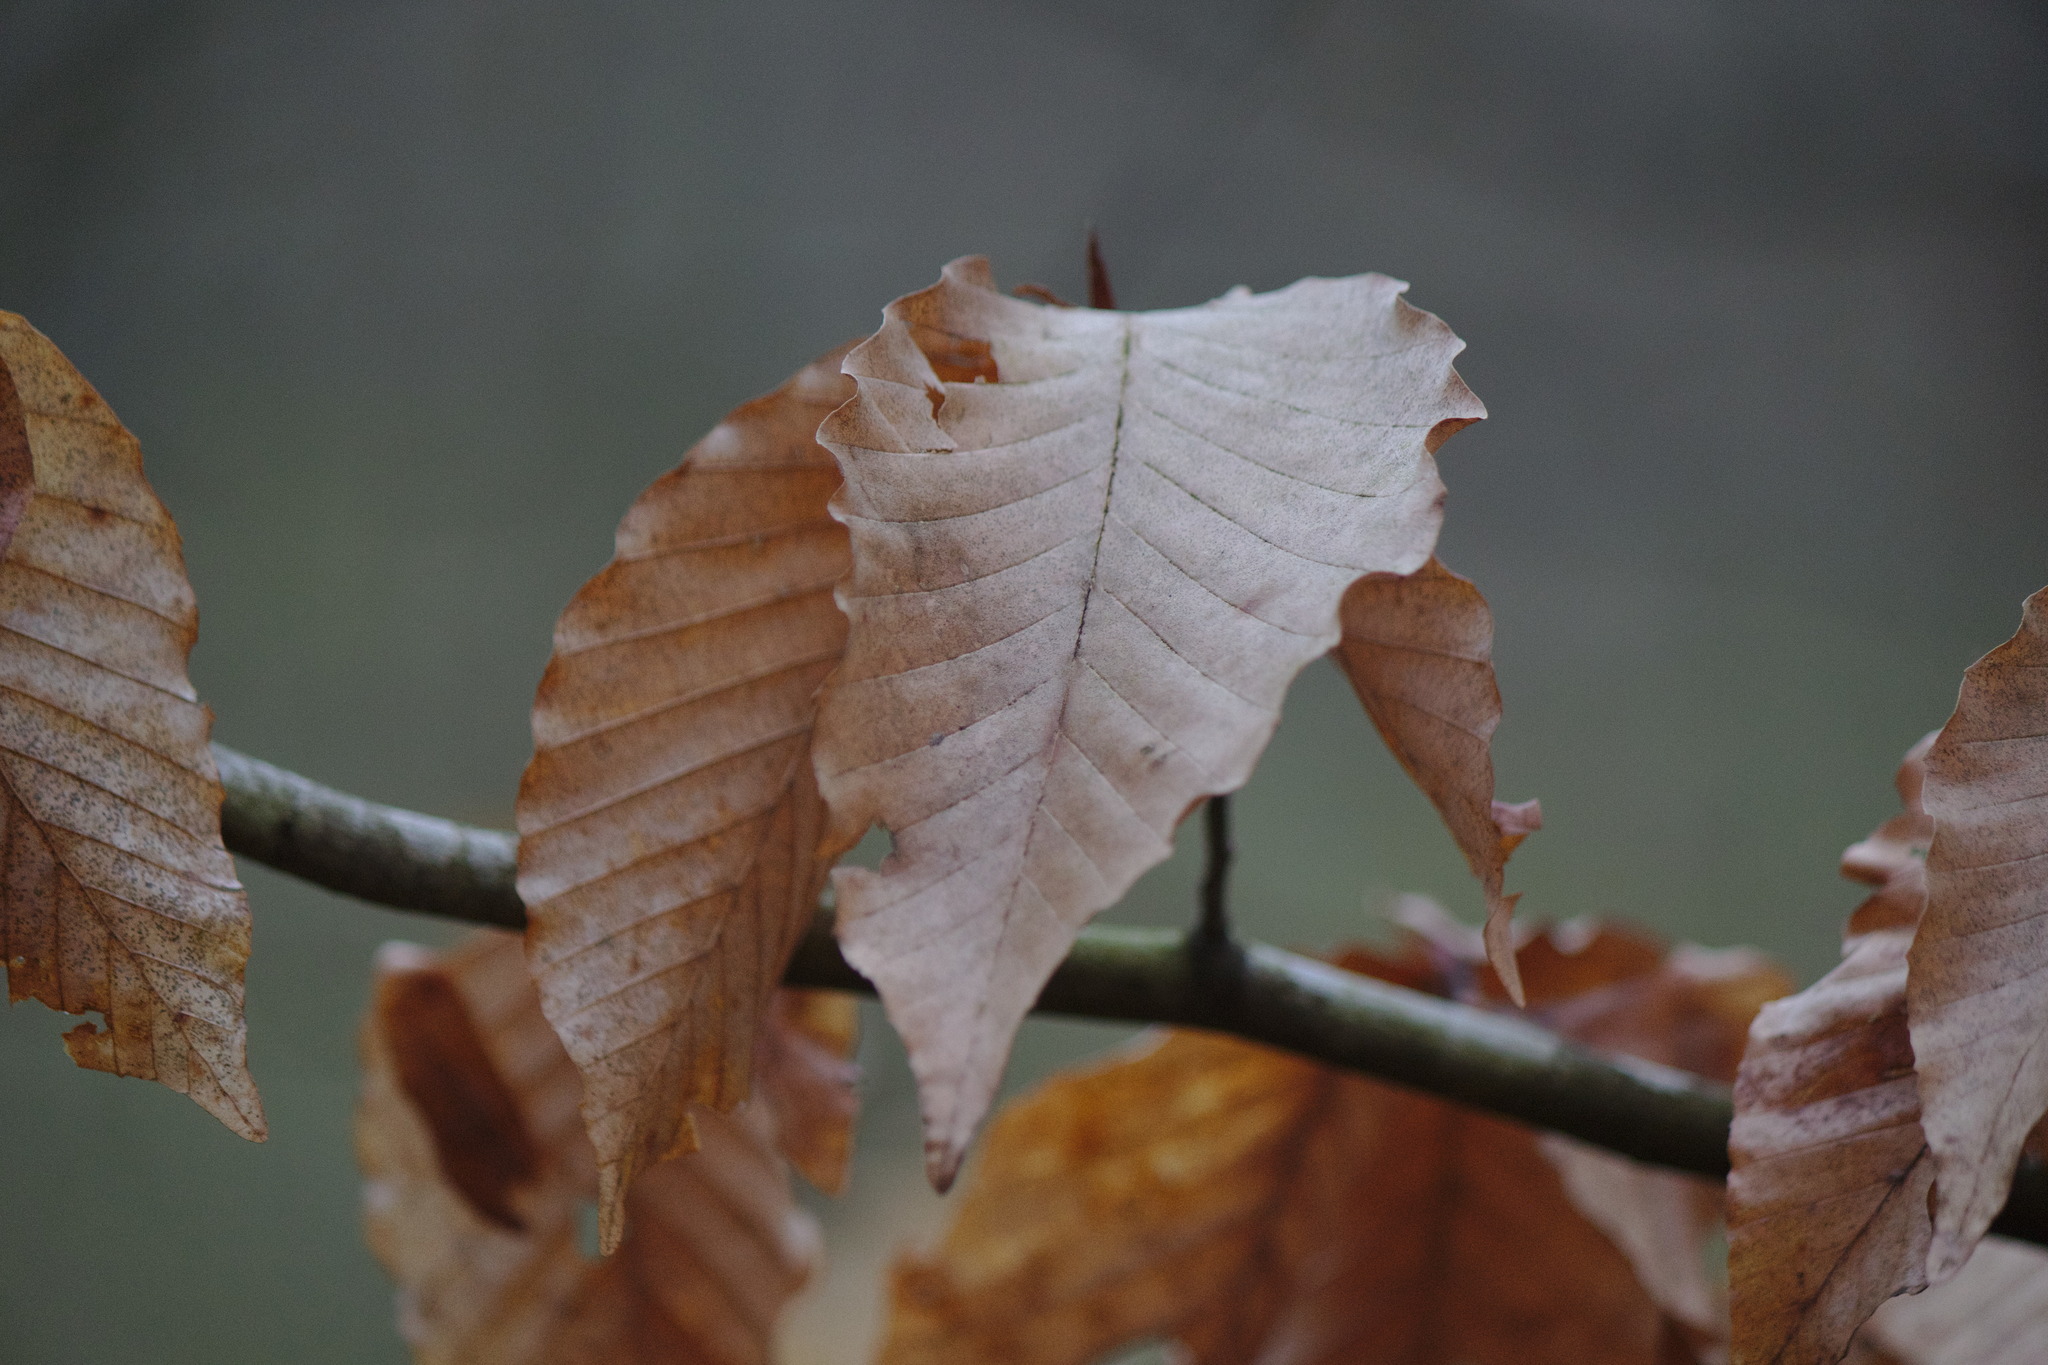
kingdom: Plantae
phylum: Tracheophyta
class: Magnoliopsida
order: Fagales
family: Fagaceae
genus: Fagus
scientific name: Fagus grandifolia
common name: American beech
